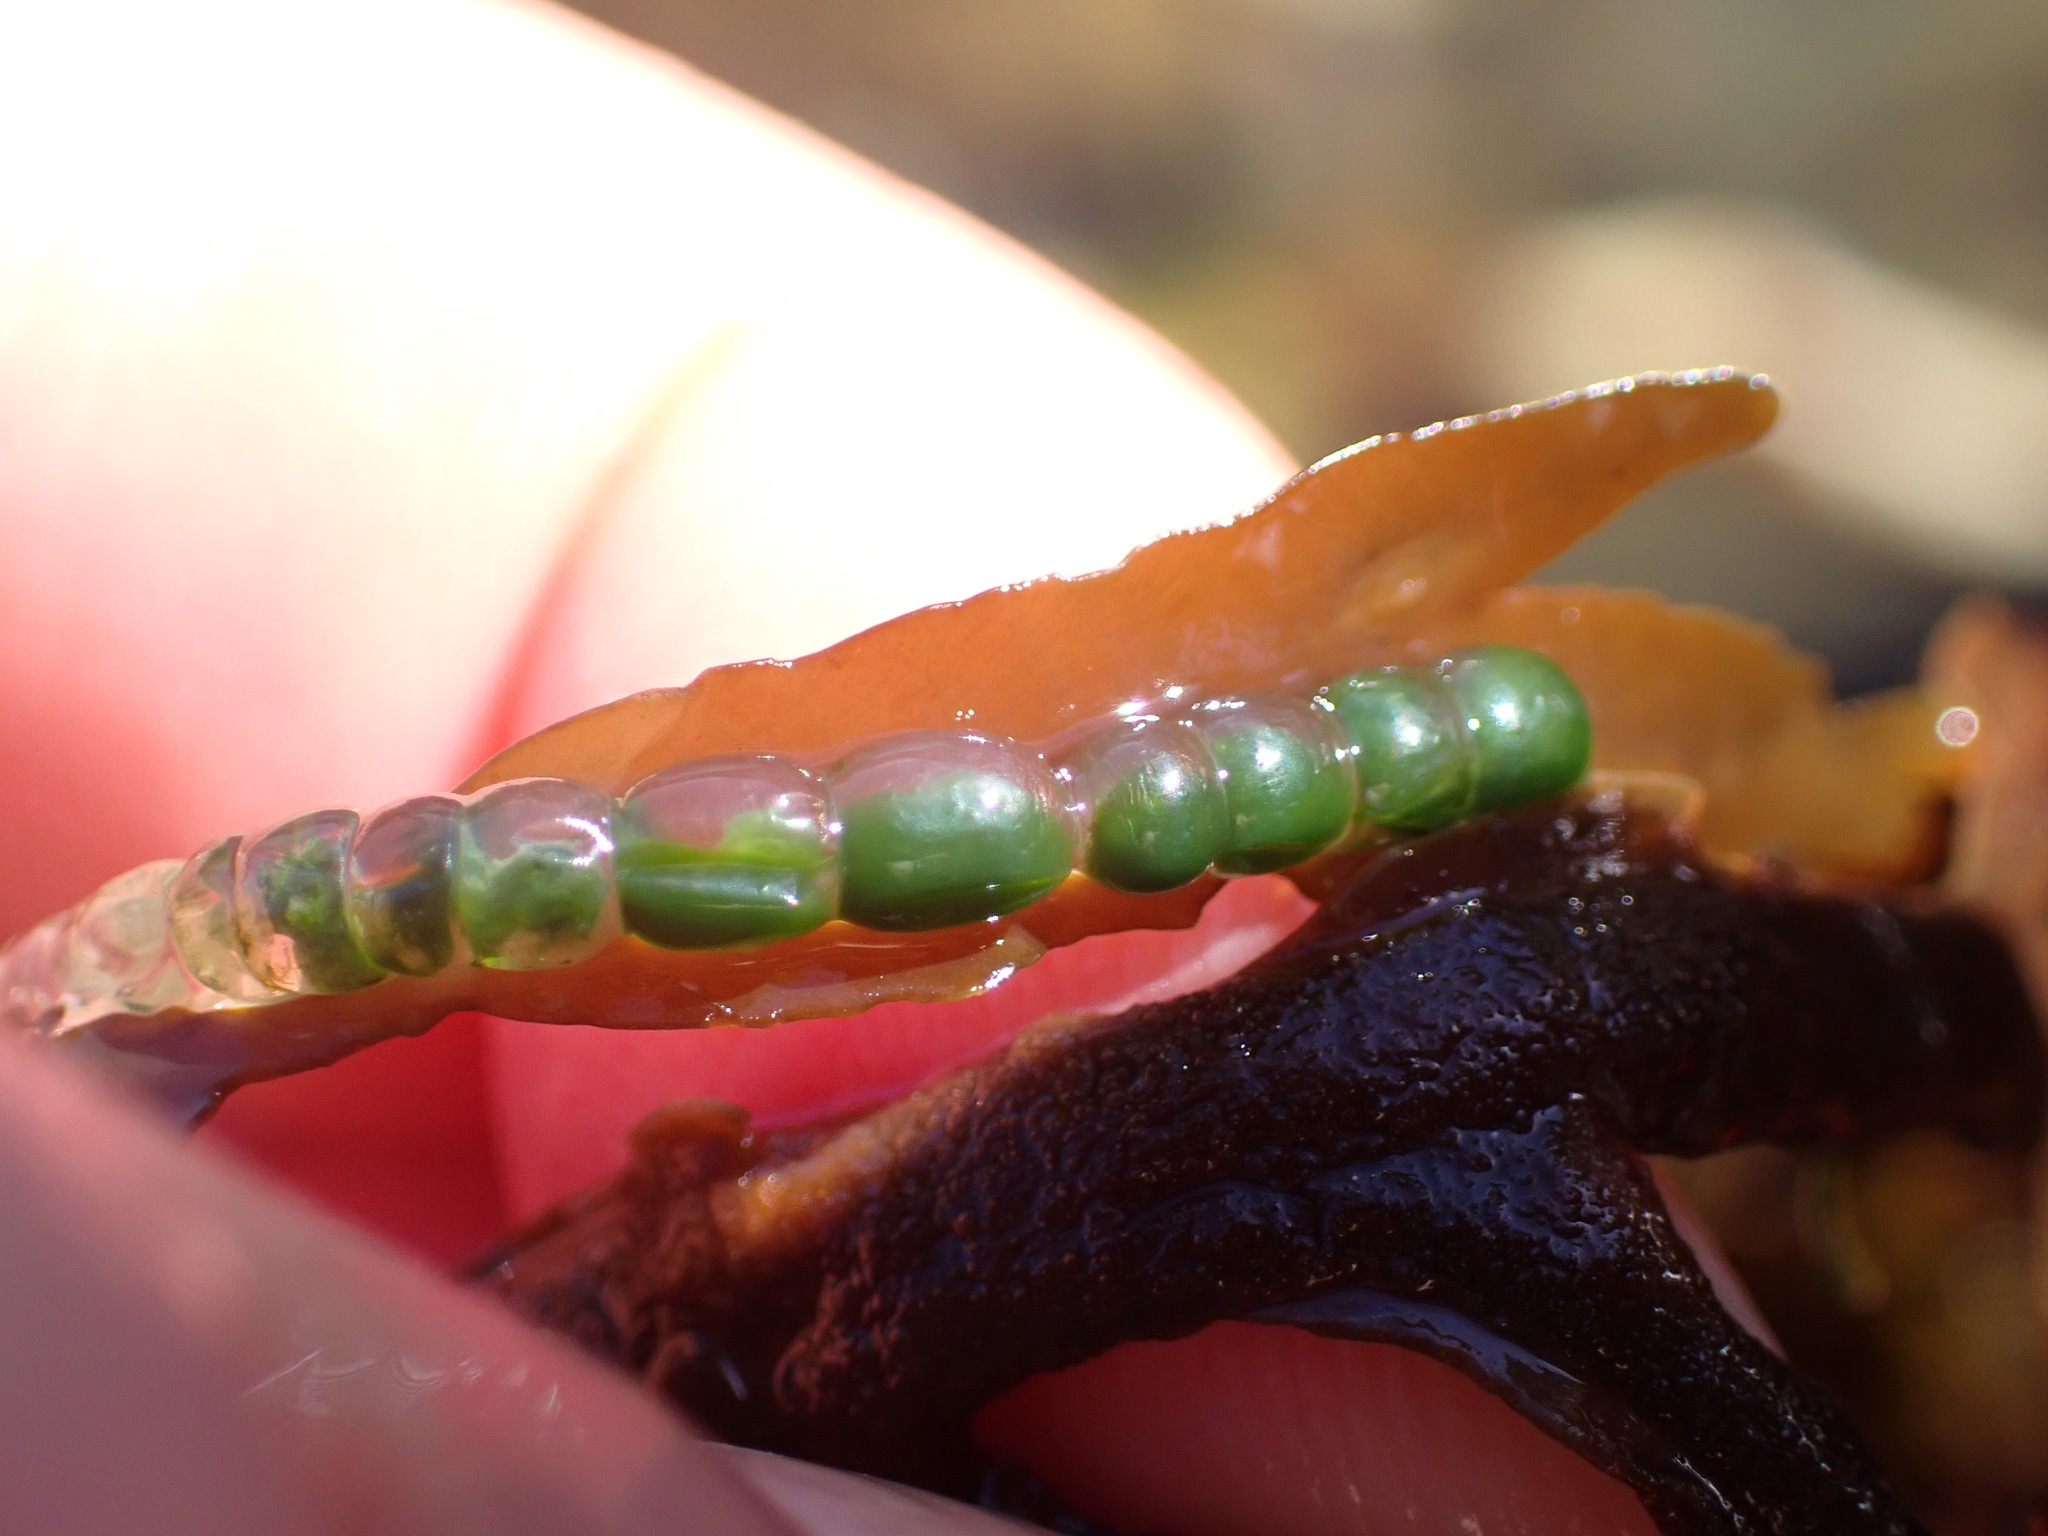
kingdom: Plantae
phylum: Chlorophyta
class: Ulvophyceae
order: Cladophorales
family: Cladophoraceae
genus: Chaetomorpha
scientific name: Chaetomorpha coliformis
